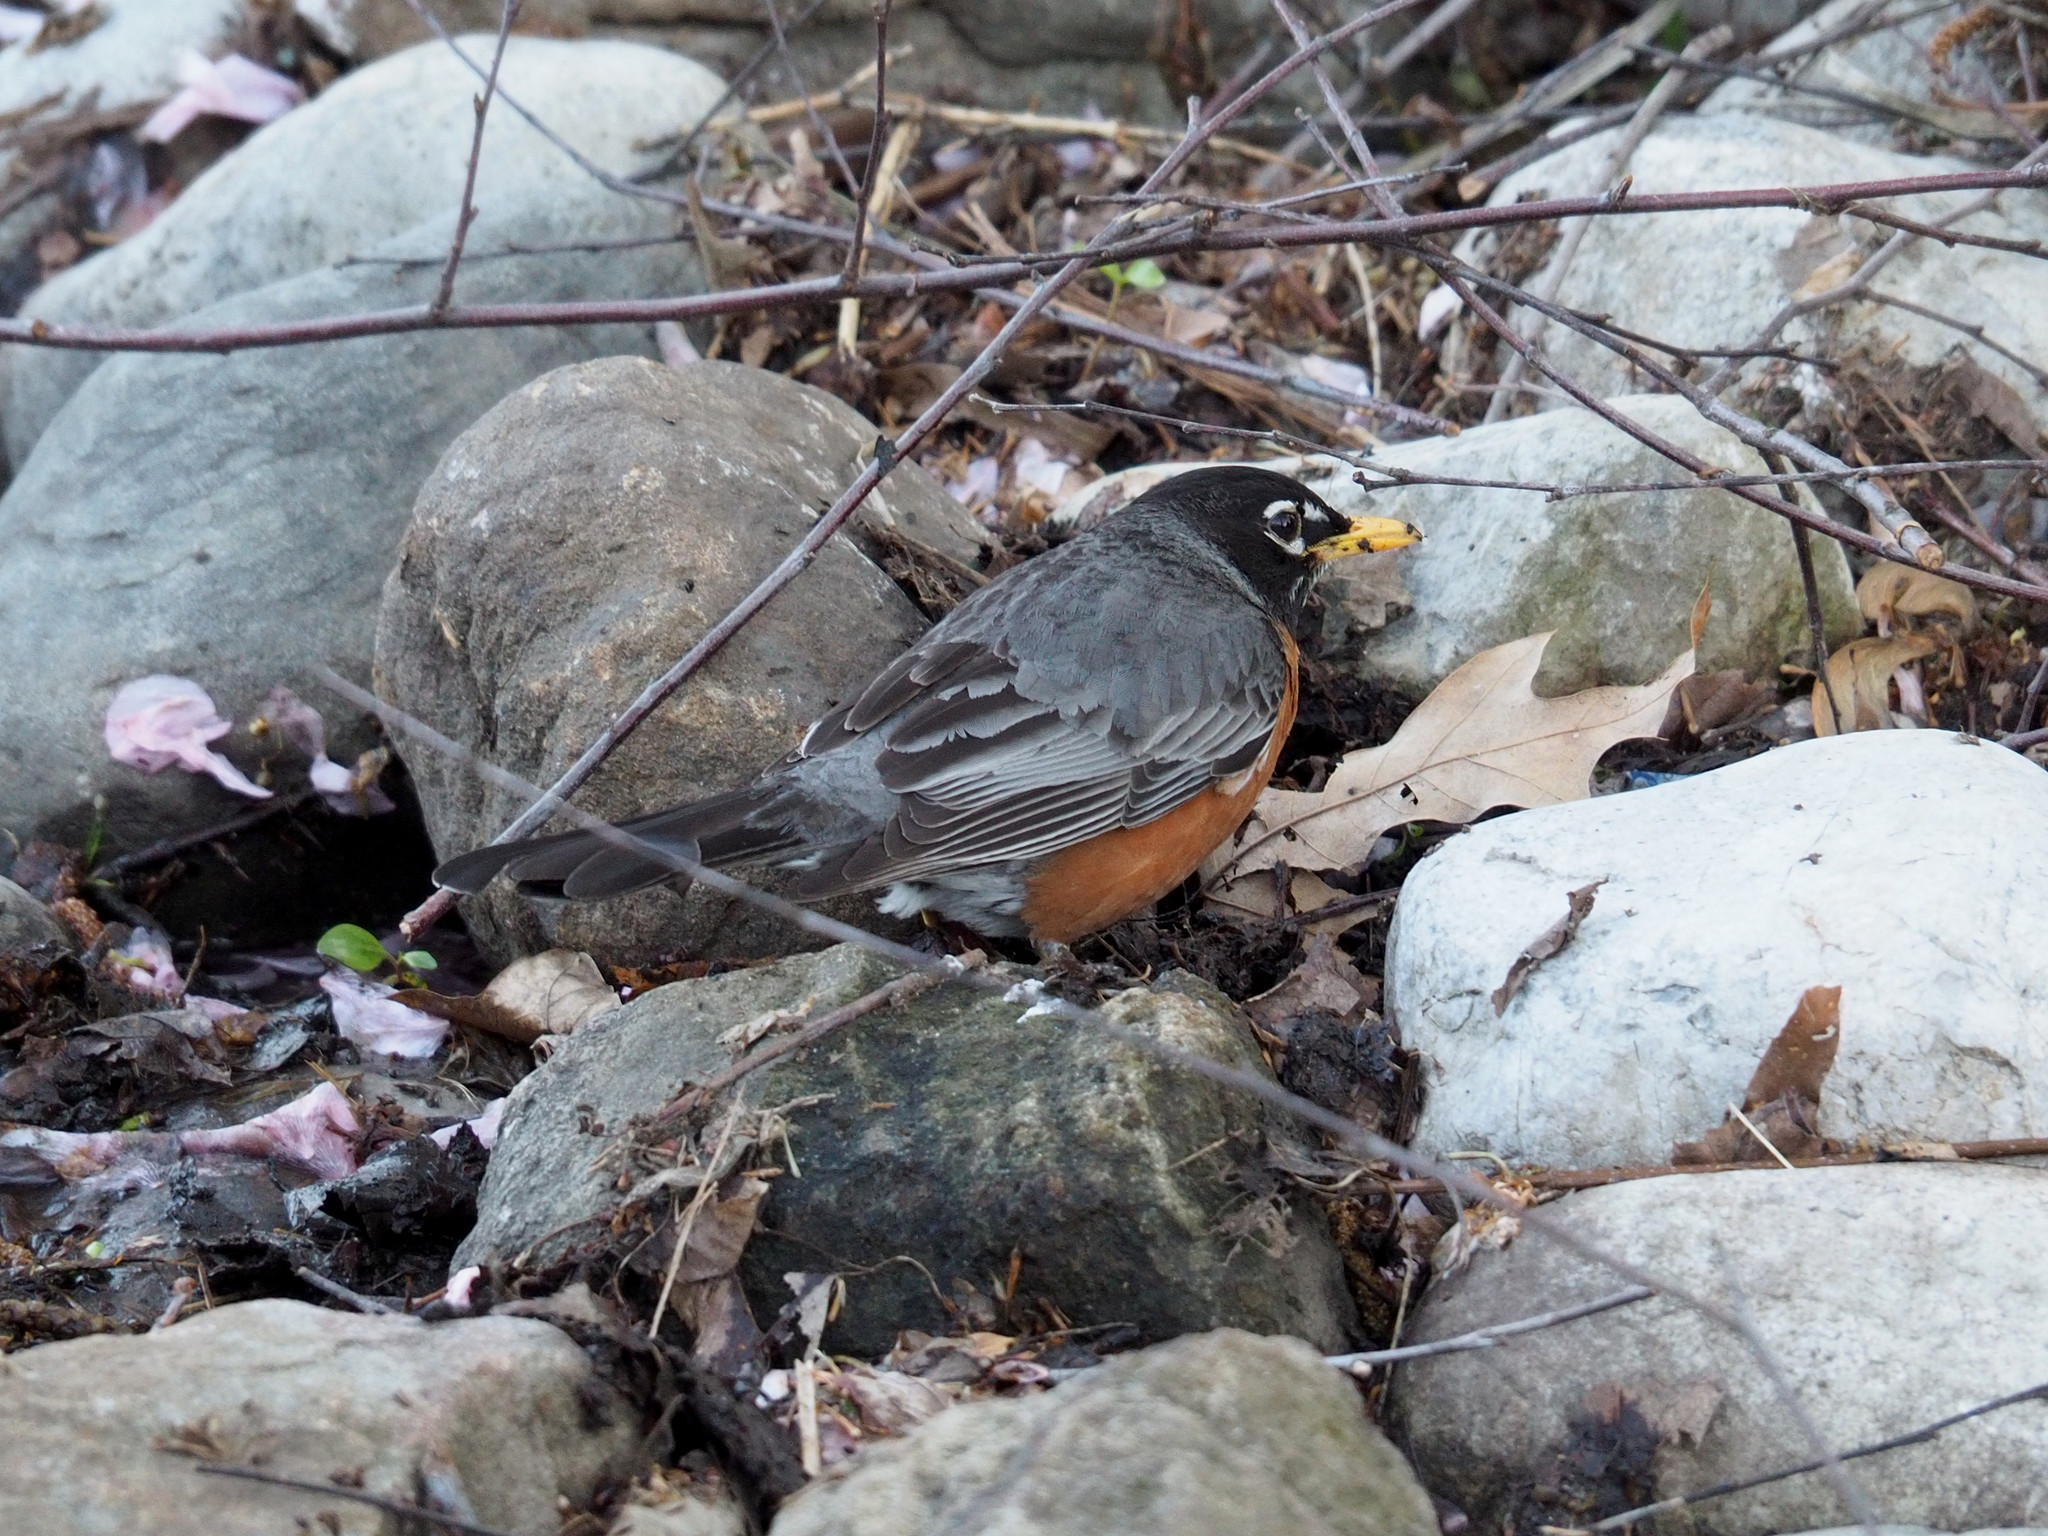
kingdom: Animalia
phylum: Chordata
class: Aves
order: Passeriformes
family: Turdidae
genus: Turdus
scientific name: Turdus migratorius
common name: American robin
